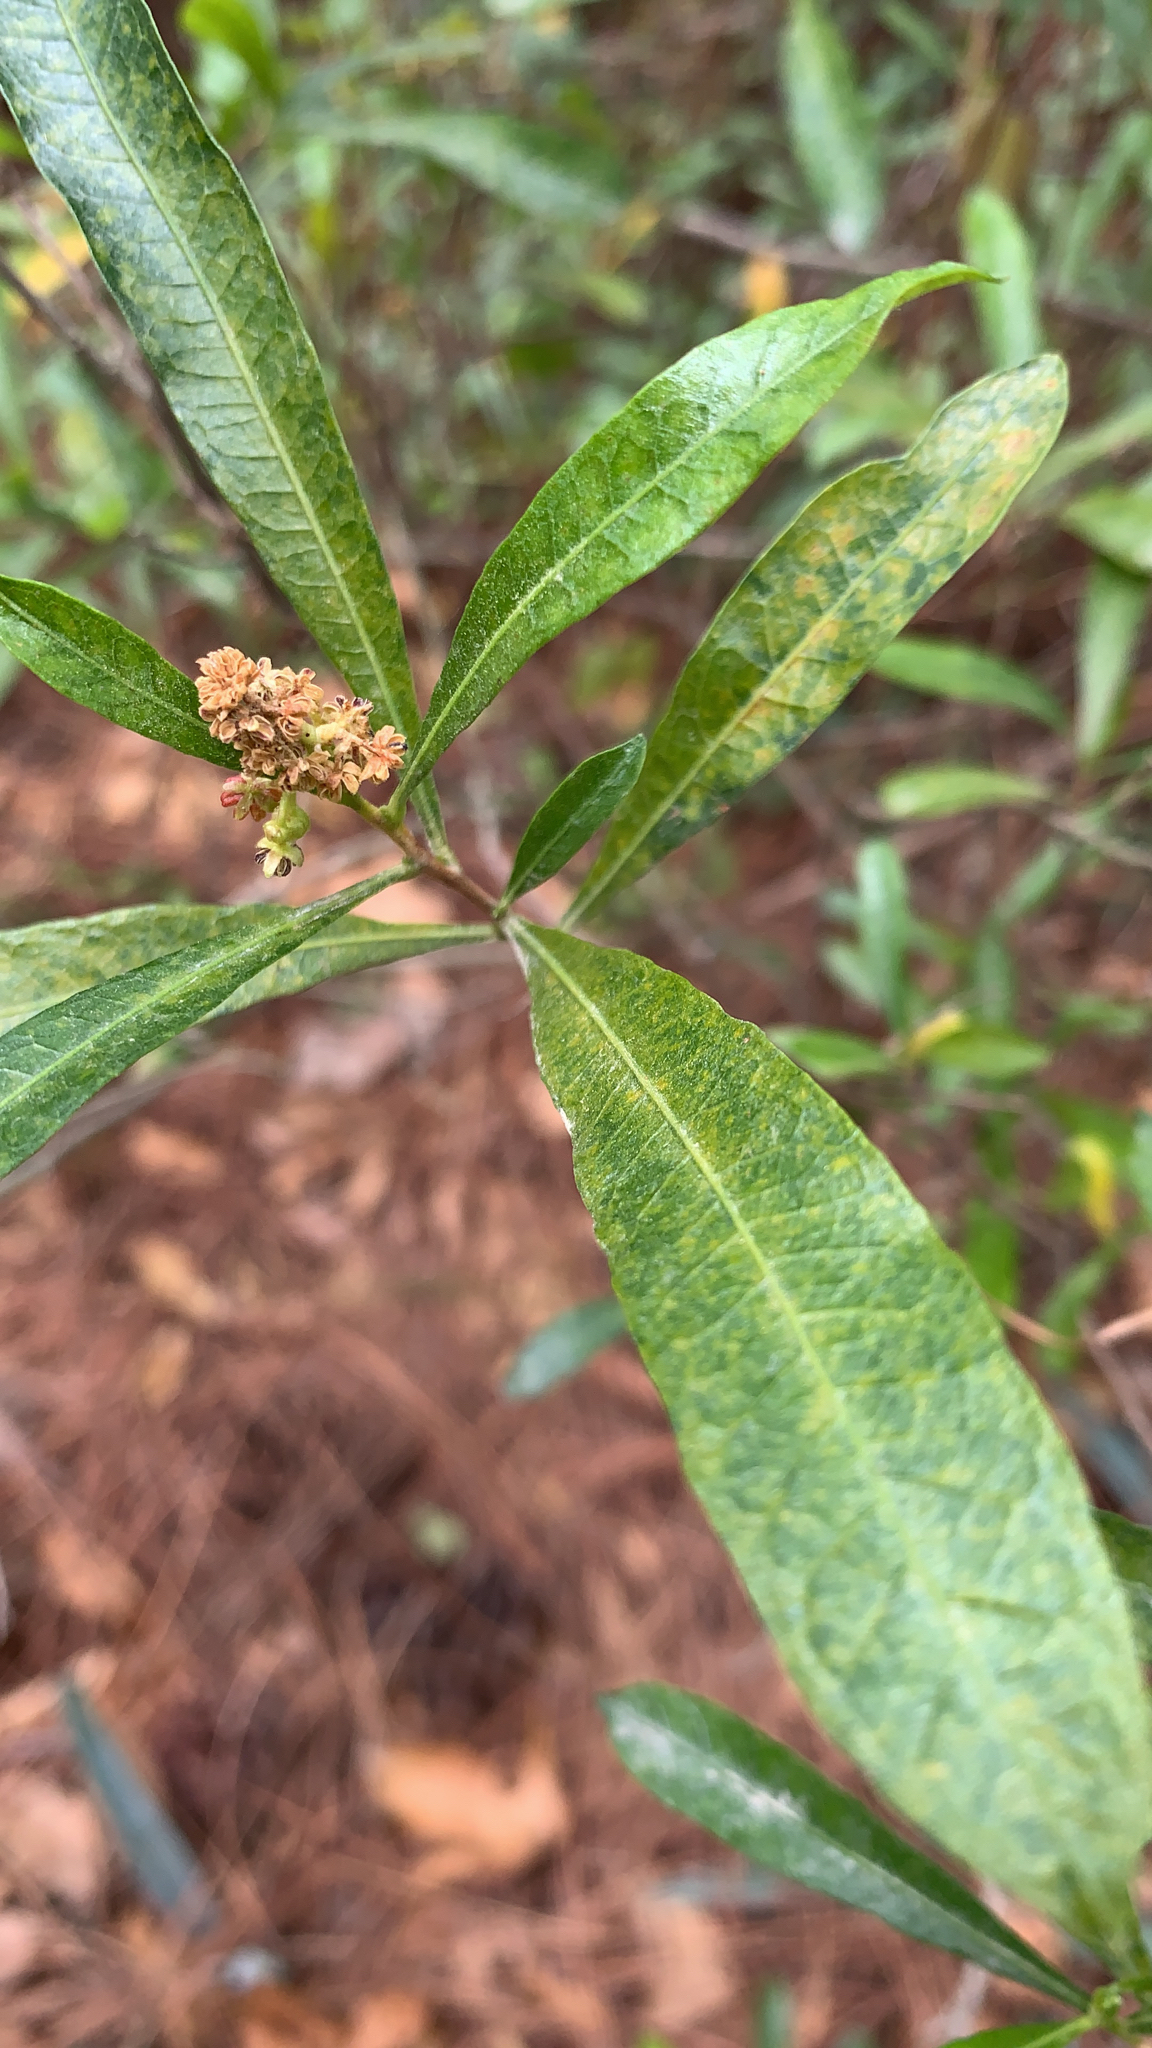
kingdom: Plantae
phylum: Tracheophyta
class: Magnoliopsida
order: Sapindales
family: Sapindaceae
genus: Dodonaea
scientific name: Dodonaea viscosa
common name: Hopbush
